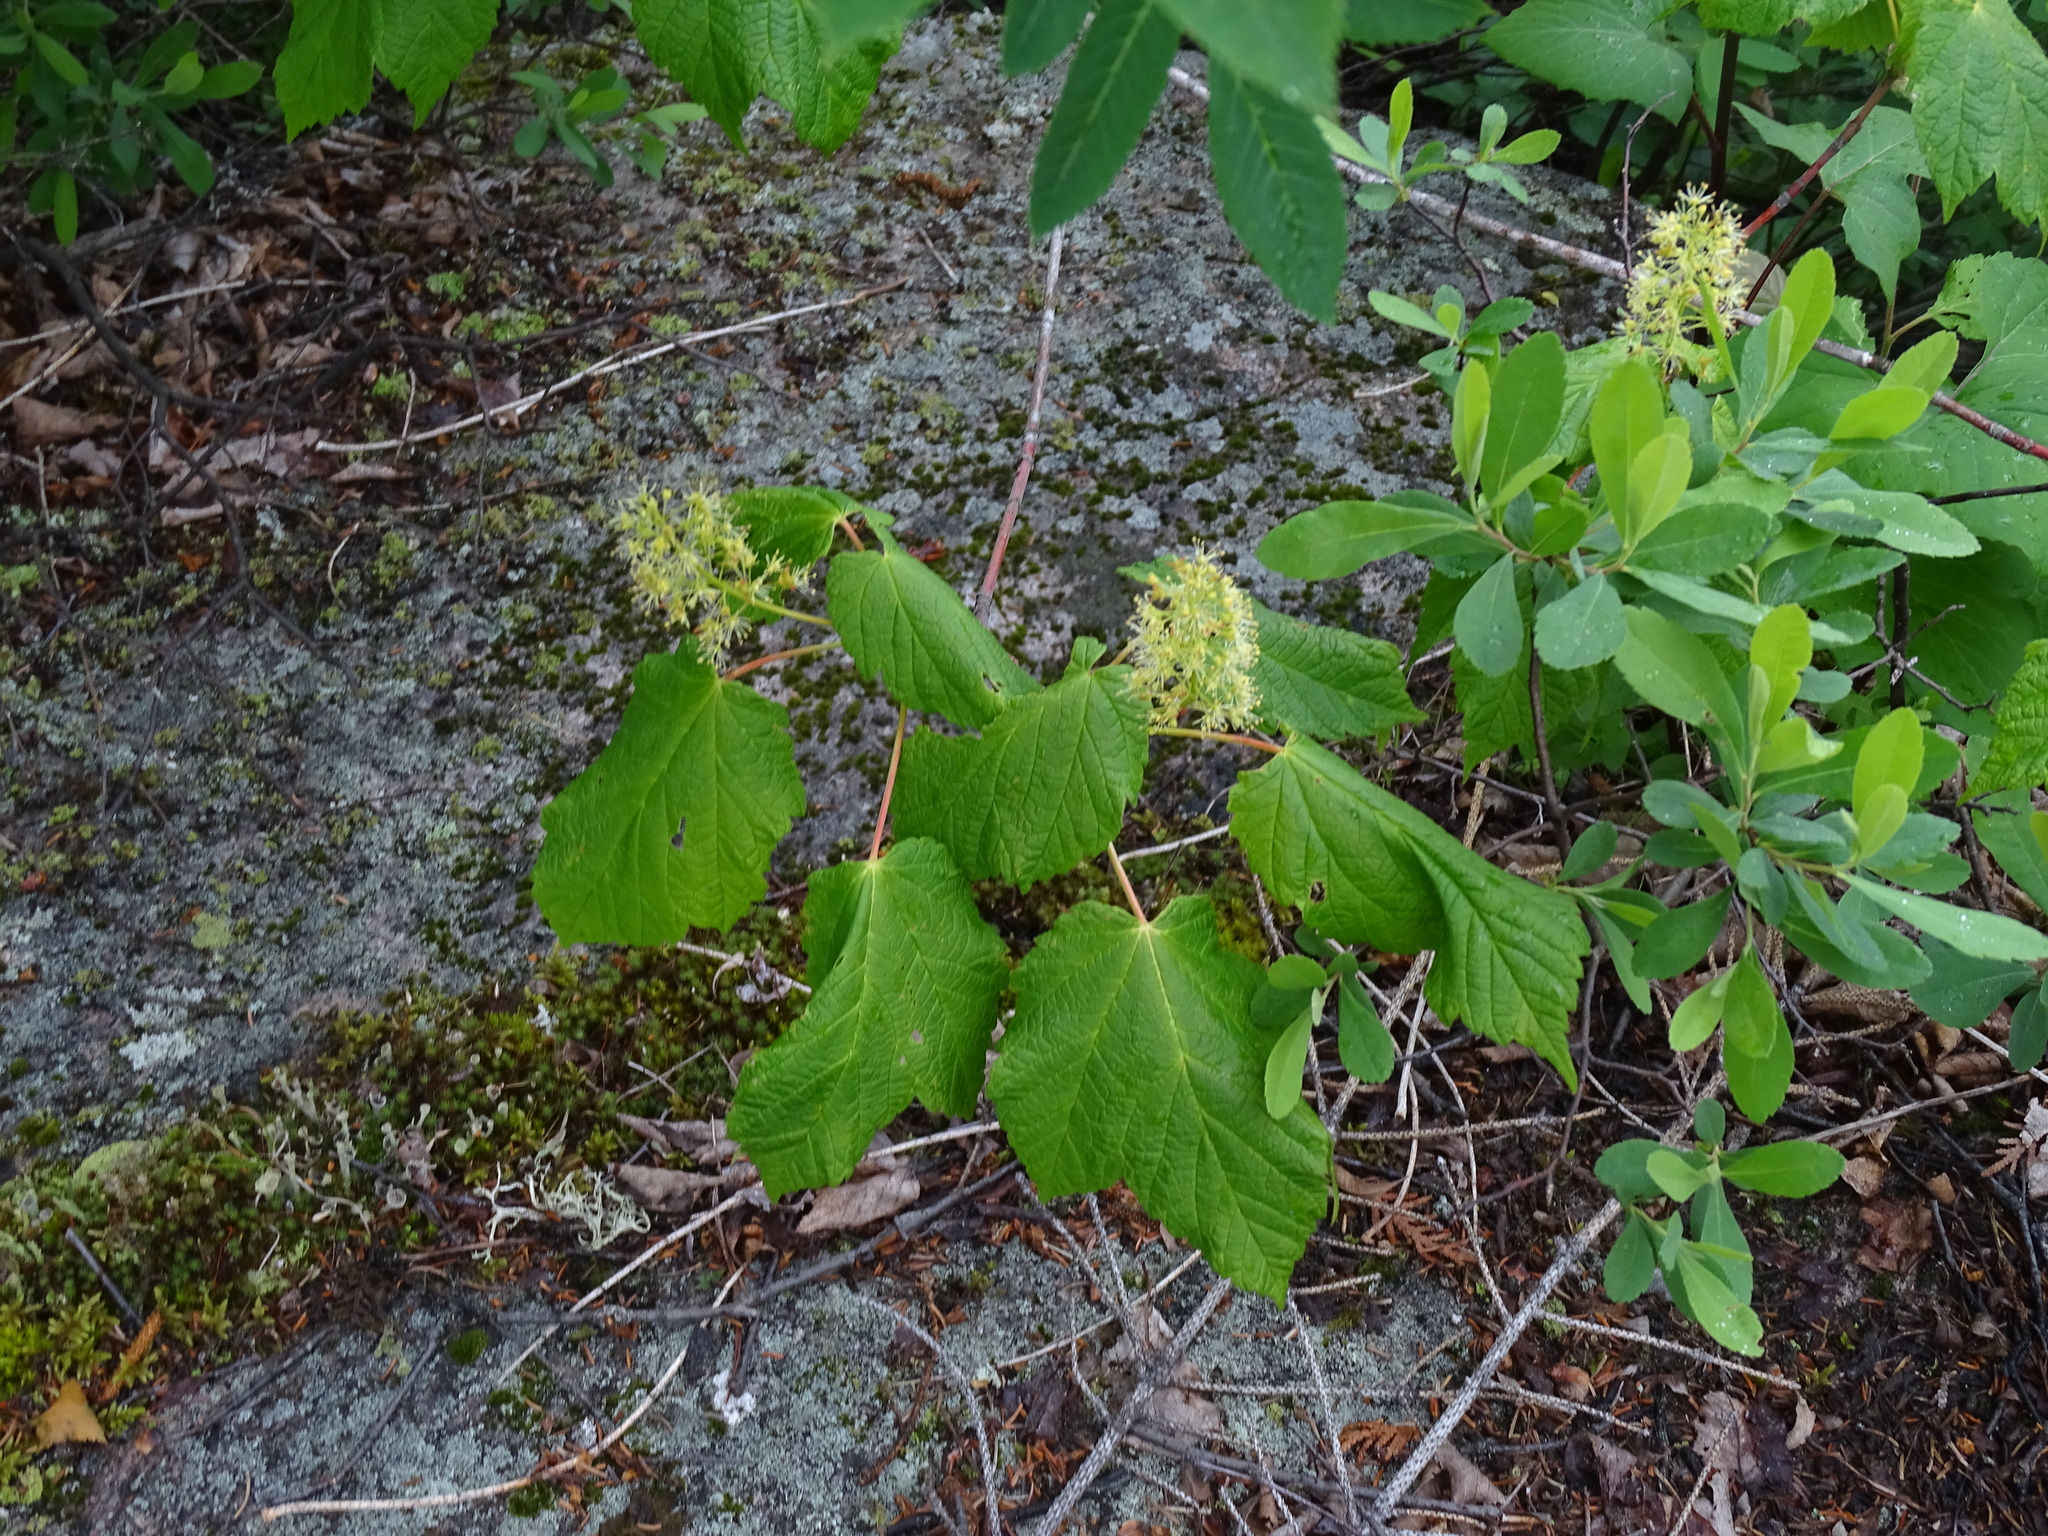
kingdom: Plantae
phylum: Tracheophyta
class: Magnoliopsida
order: Sapindales
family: Sapindaceae
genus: Acer
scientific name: Acer spicatum
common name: Mountain maple
